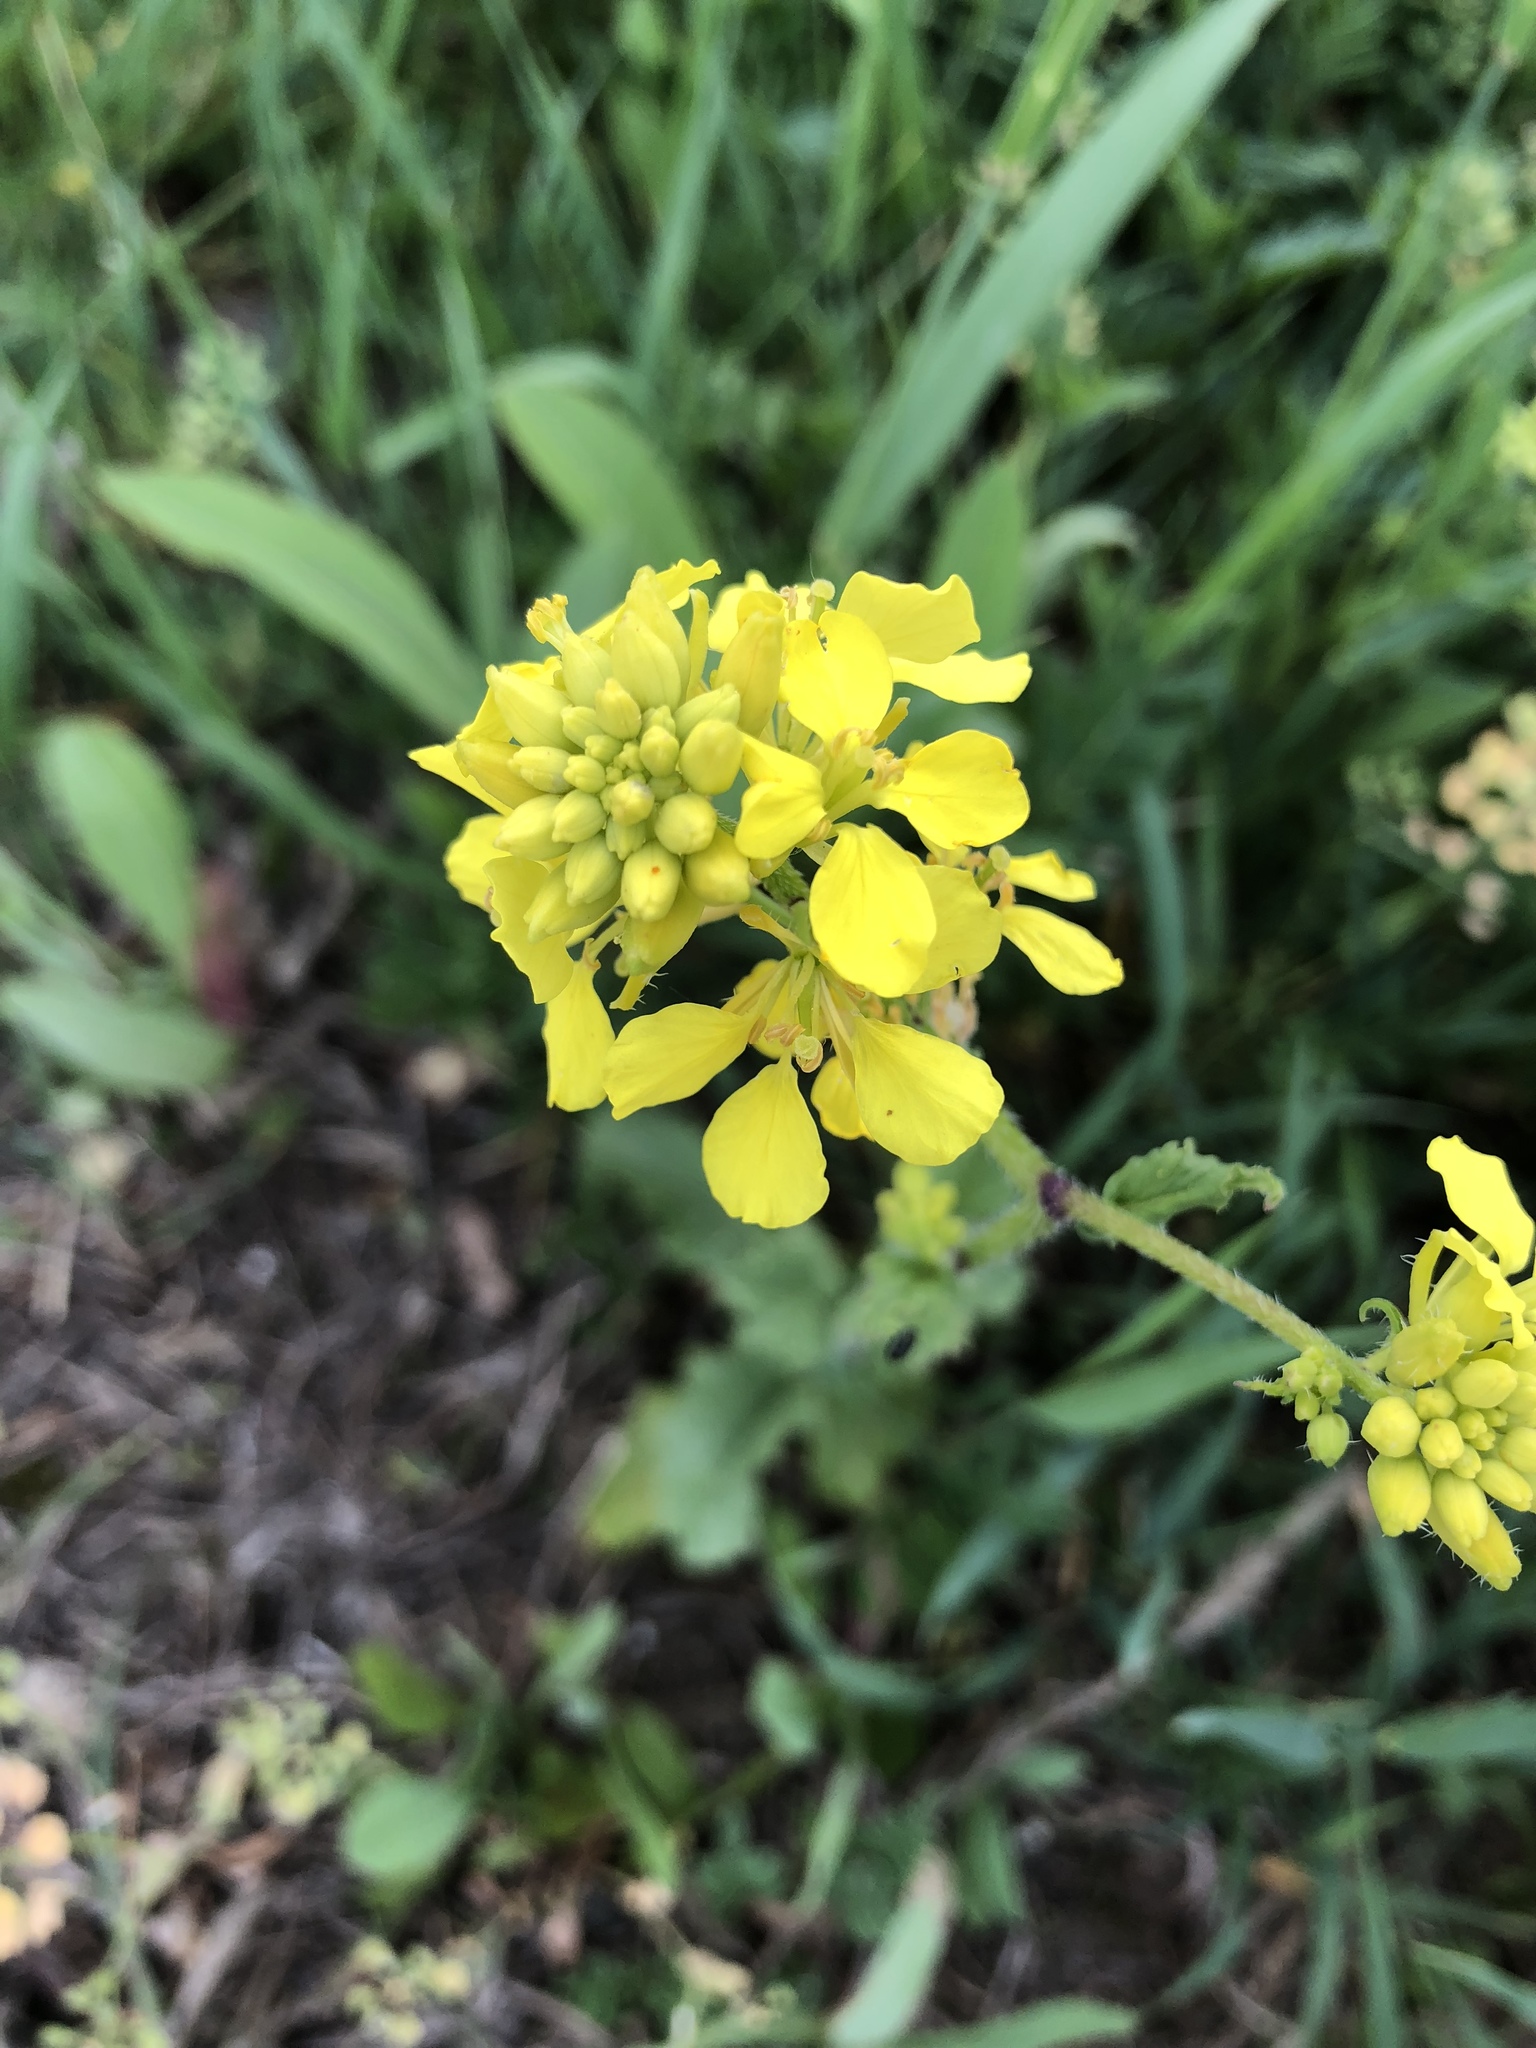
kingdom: Plantae
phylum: Tracheophyta
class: Magnoliopsida
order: Brassicales
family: Brassicaceae
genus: Sinapis
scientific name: Sinapis arvensis
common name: Charlock
